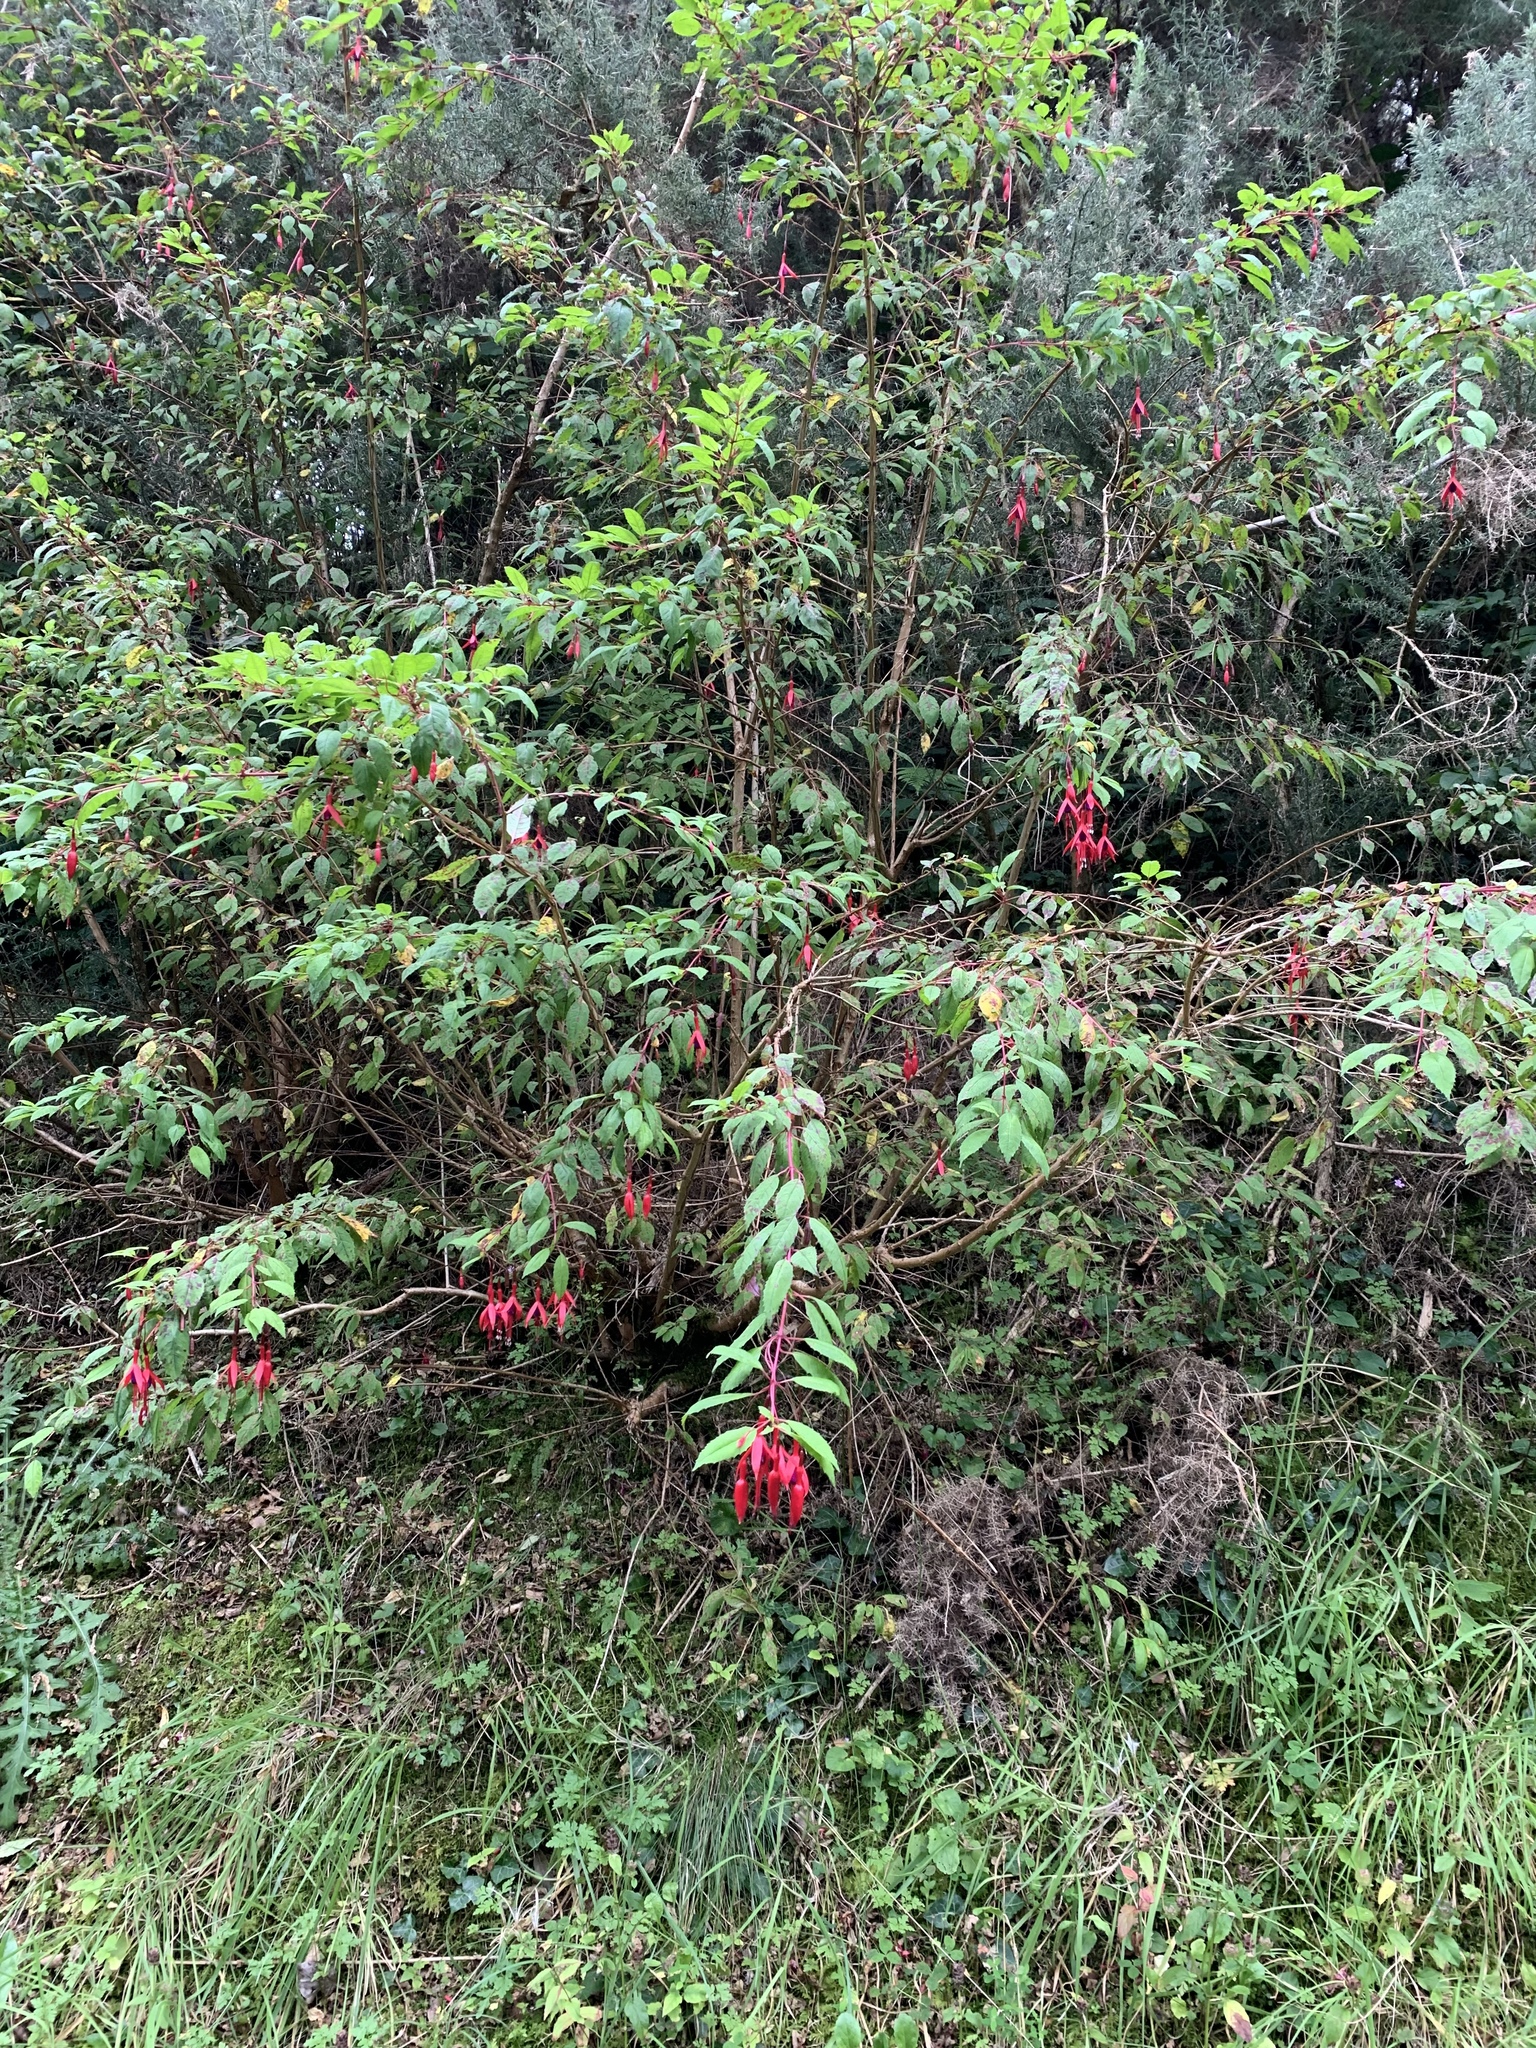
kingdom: Plantae
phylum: Tracheophyta
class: Magnoliopsida
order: Myrtales
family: Onagraceae
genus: Fuchsia
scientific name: Fuchsia magellanica
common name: Hardy fuchsia
